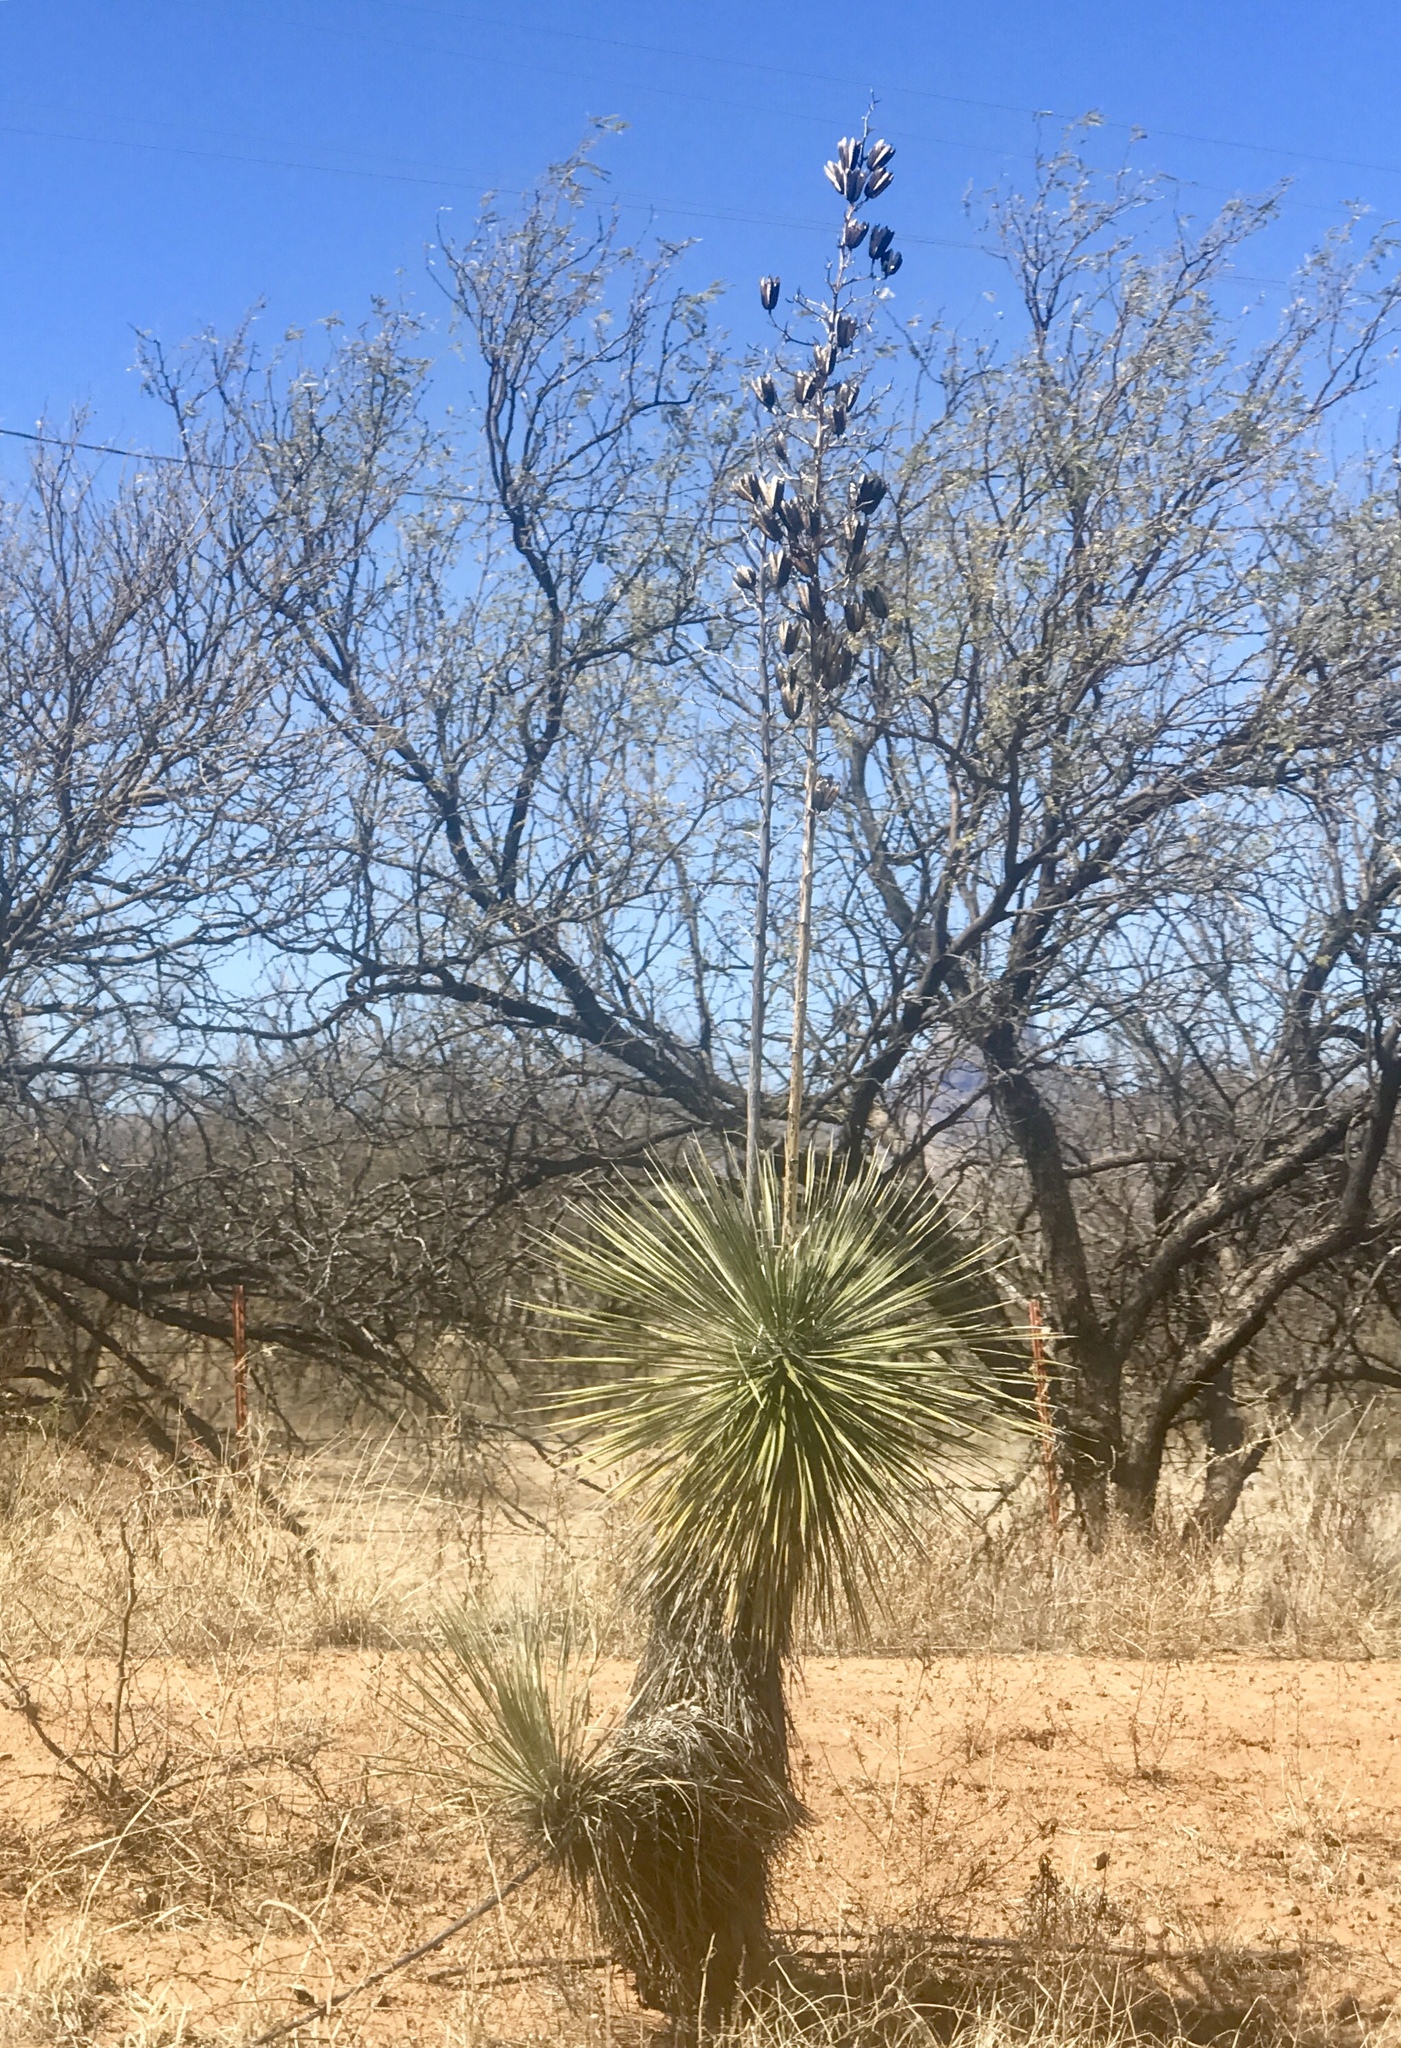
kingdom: Plantae
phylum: Tracheophyta
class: Liliopsida
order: Asparagales
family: Asparagaceae
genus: Yucca
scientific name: Yucca elata
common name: Palmella
